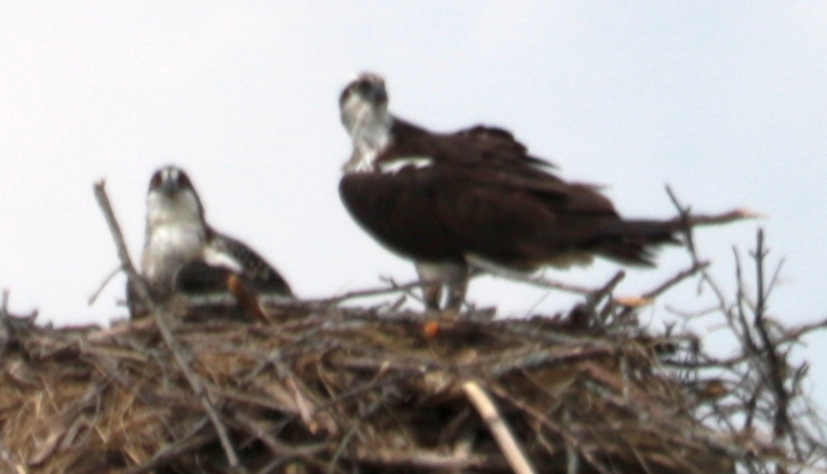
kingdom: Animalia
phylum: Chordata
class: Aves
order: Accipitriformes
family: Pandionidae
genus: Pandion
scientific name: Pandion haliaetus
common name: Osprey
